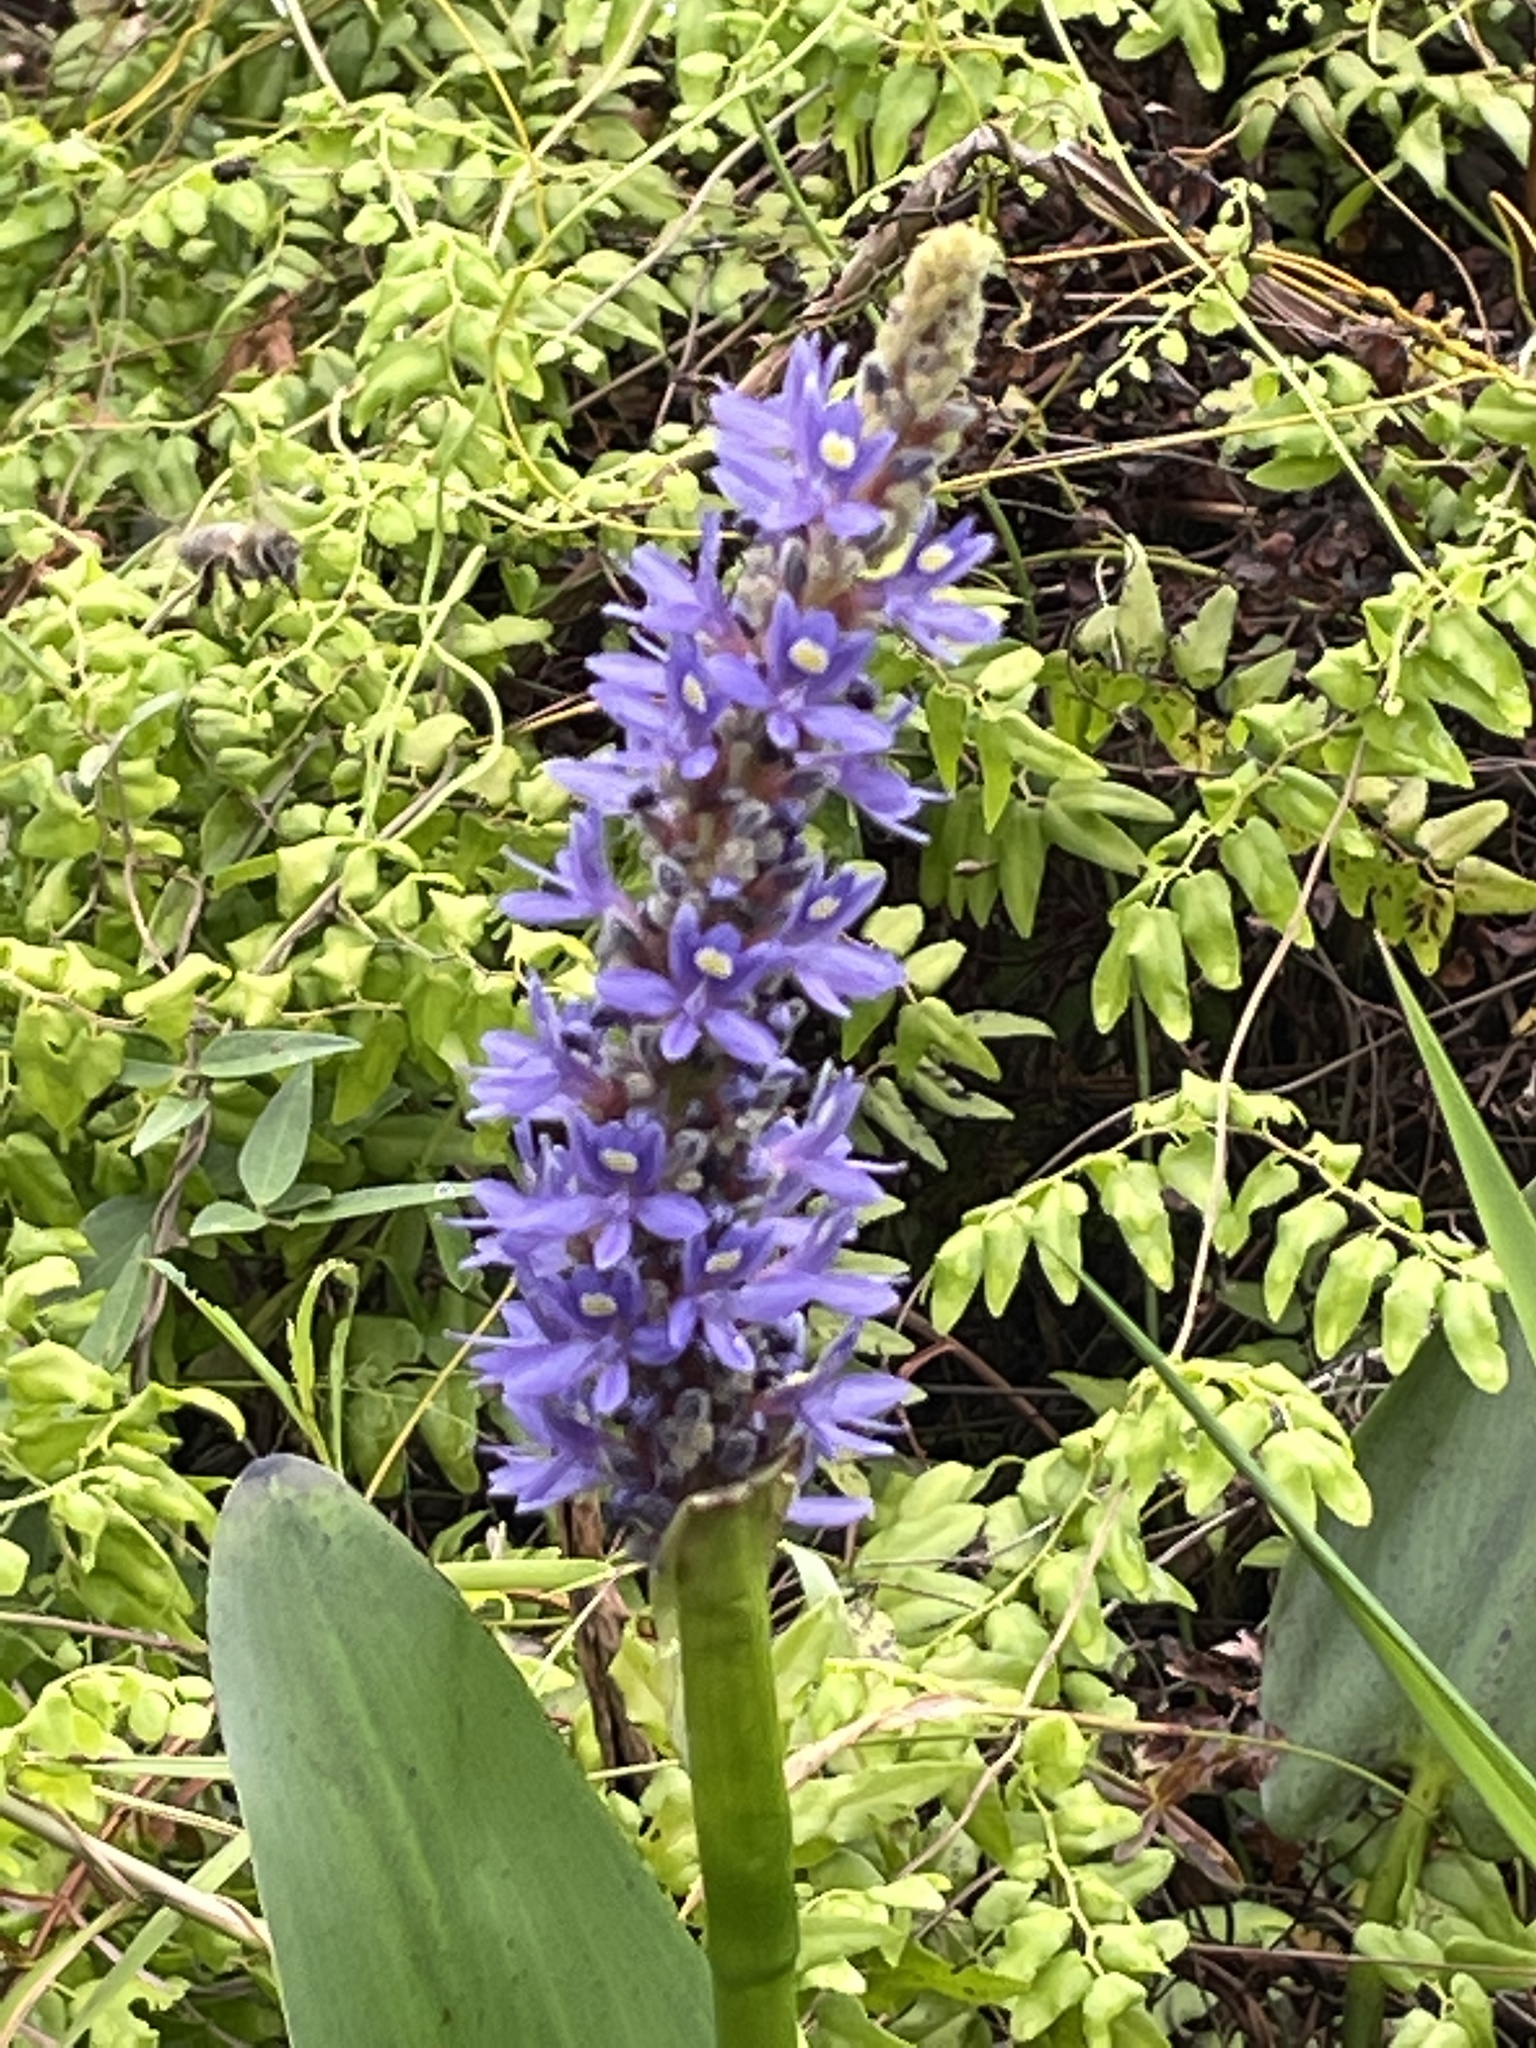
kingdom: Plantae
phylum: Tracheophyta
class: Liliopsida
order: Commelinales
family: Pontederiaceae
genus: Pontederia
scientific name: Pontederia cordata
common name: Pickerelweed
